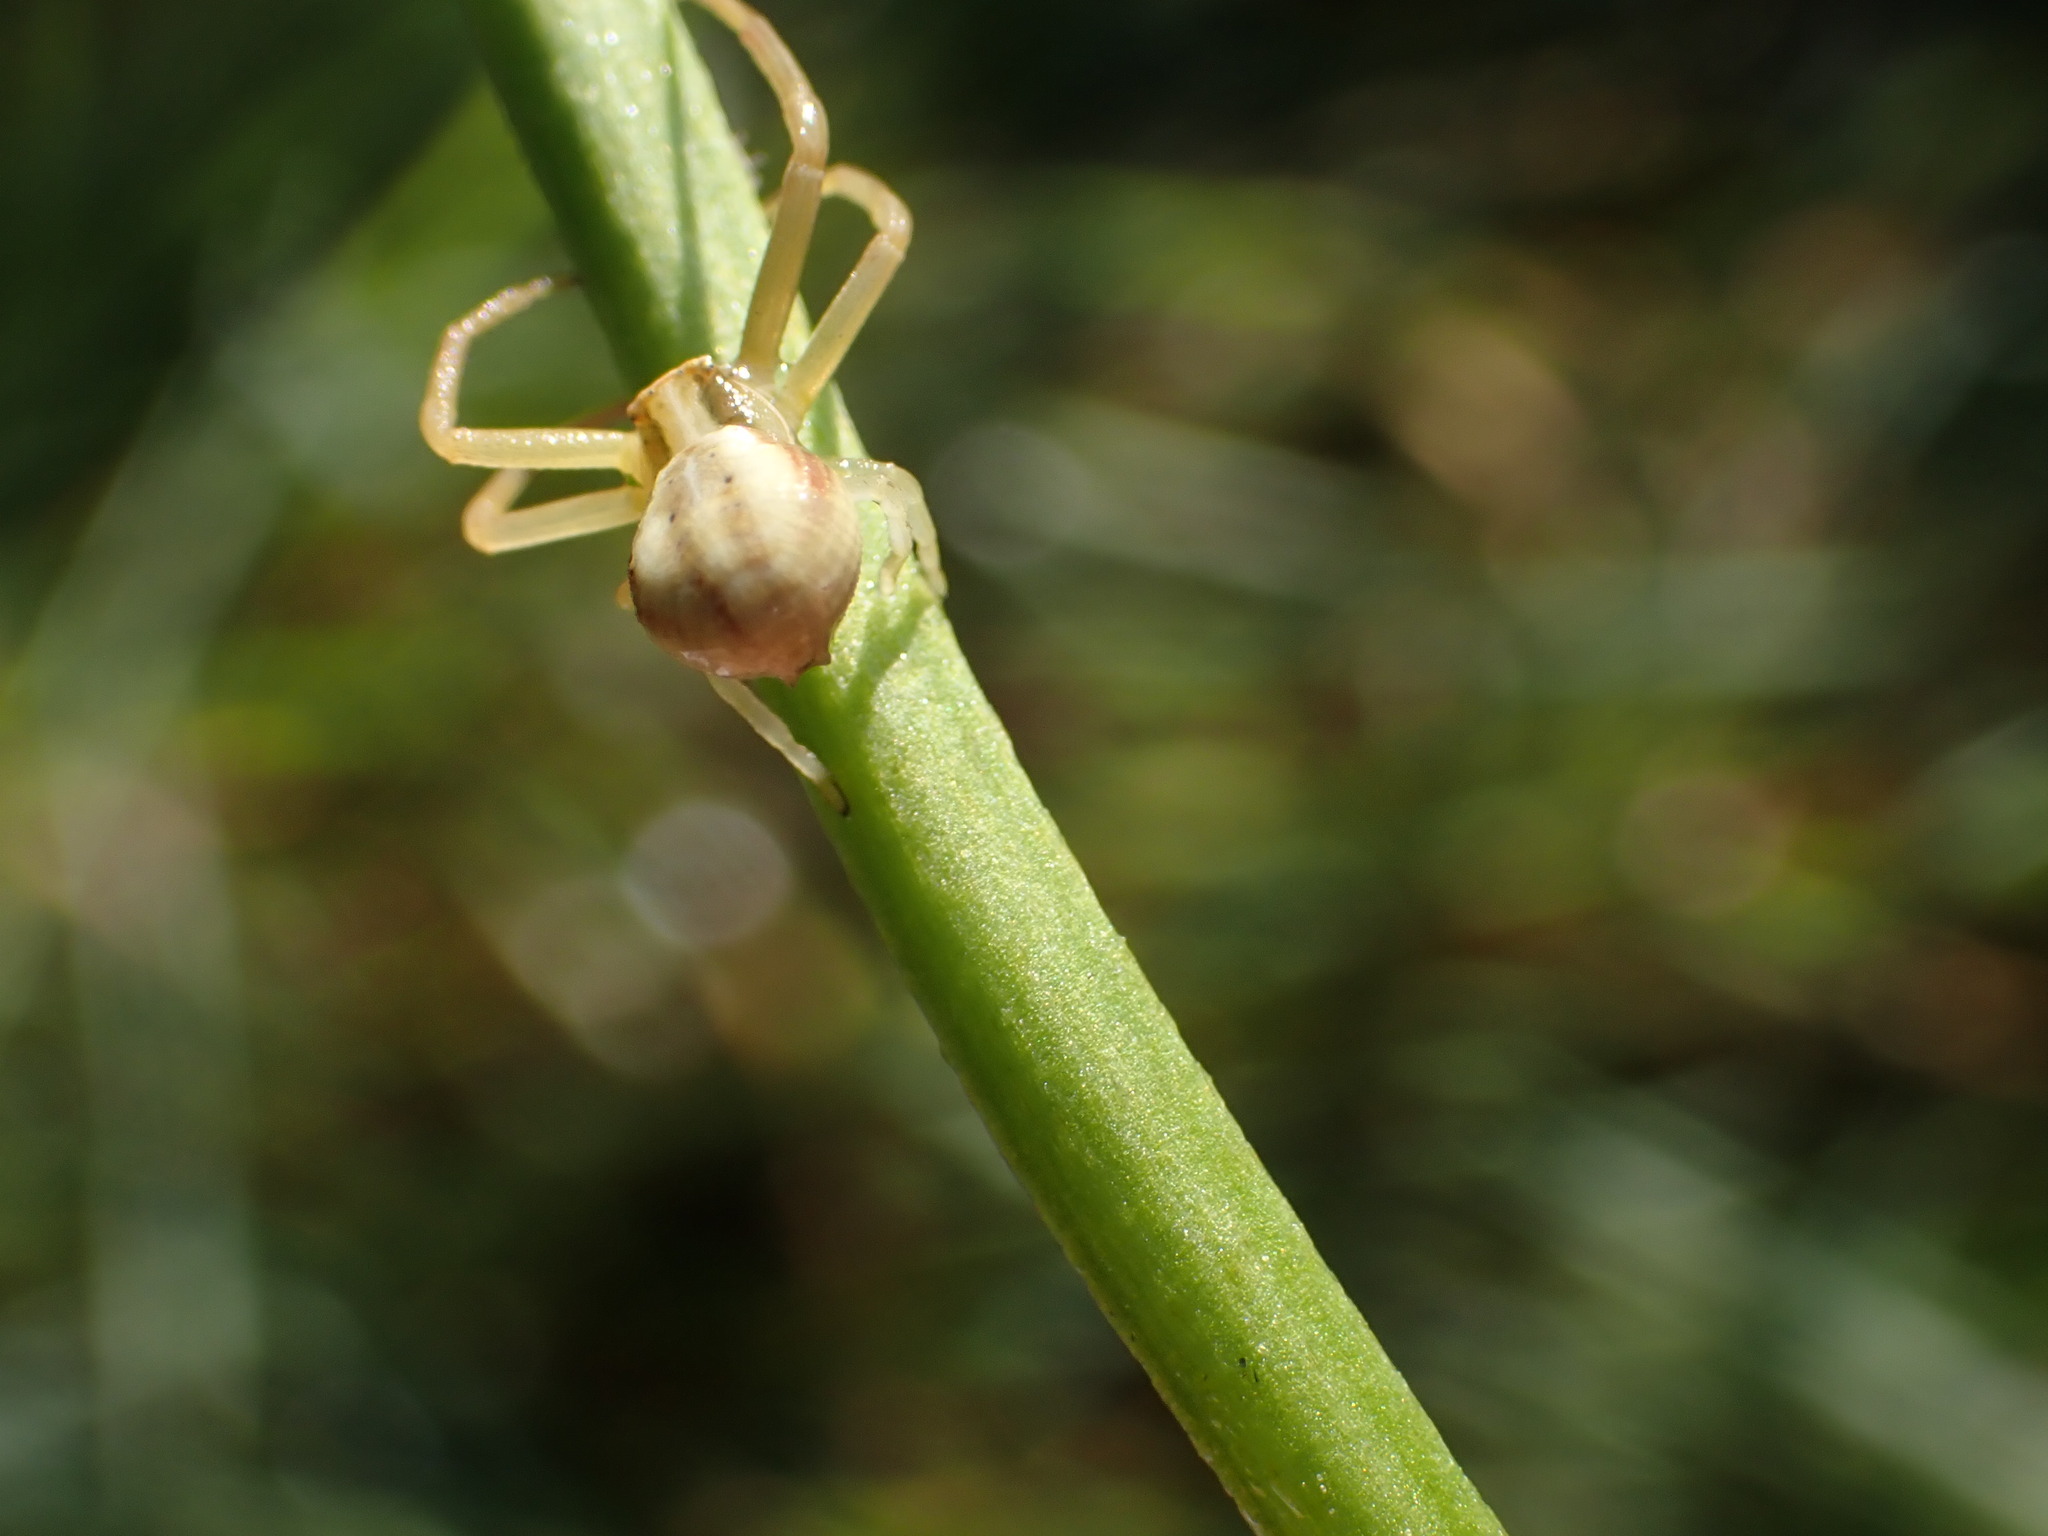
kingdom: Animalia
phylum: Arthropoda
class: Arachnida
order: Araneae
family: Thomisidae
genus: Runcinia
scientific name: Runcinia grammica
